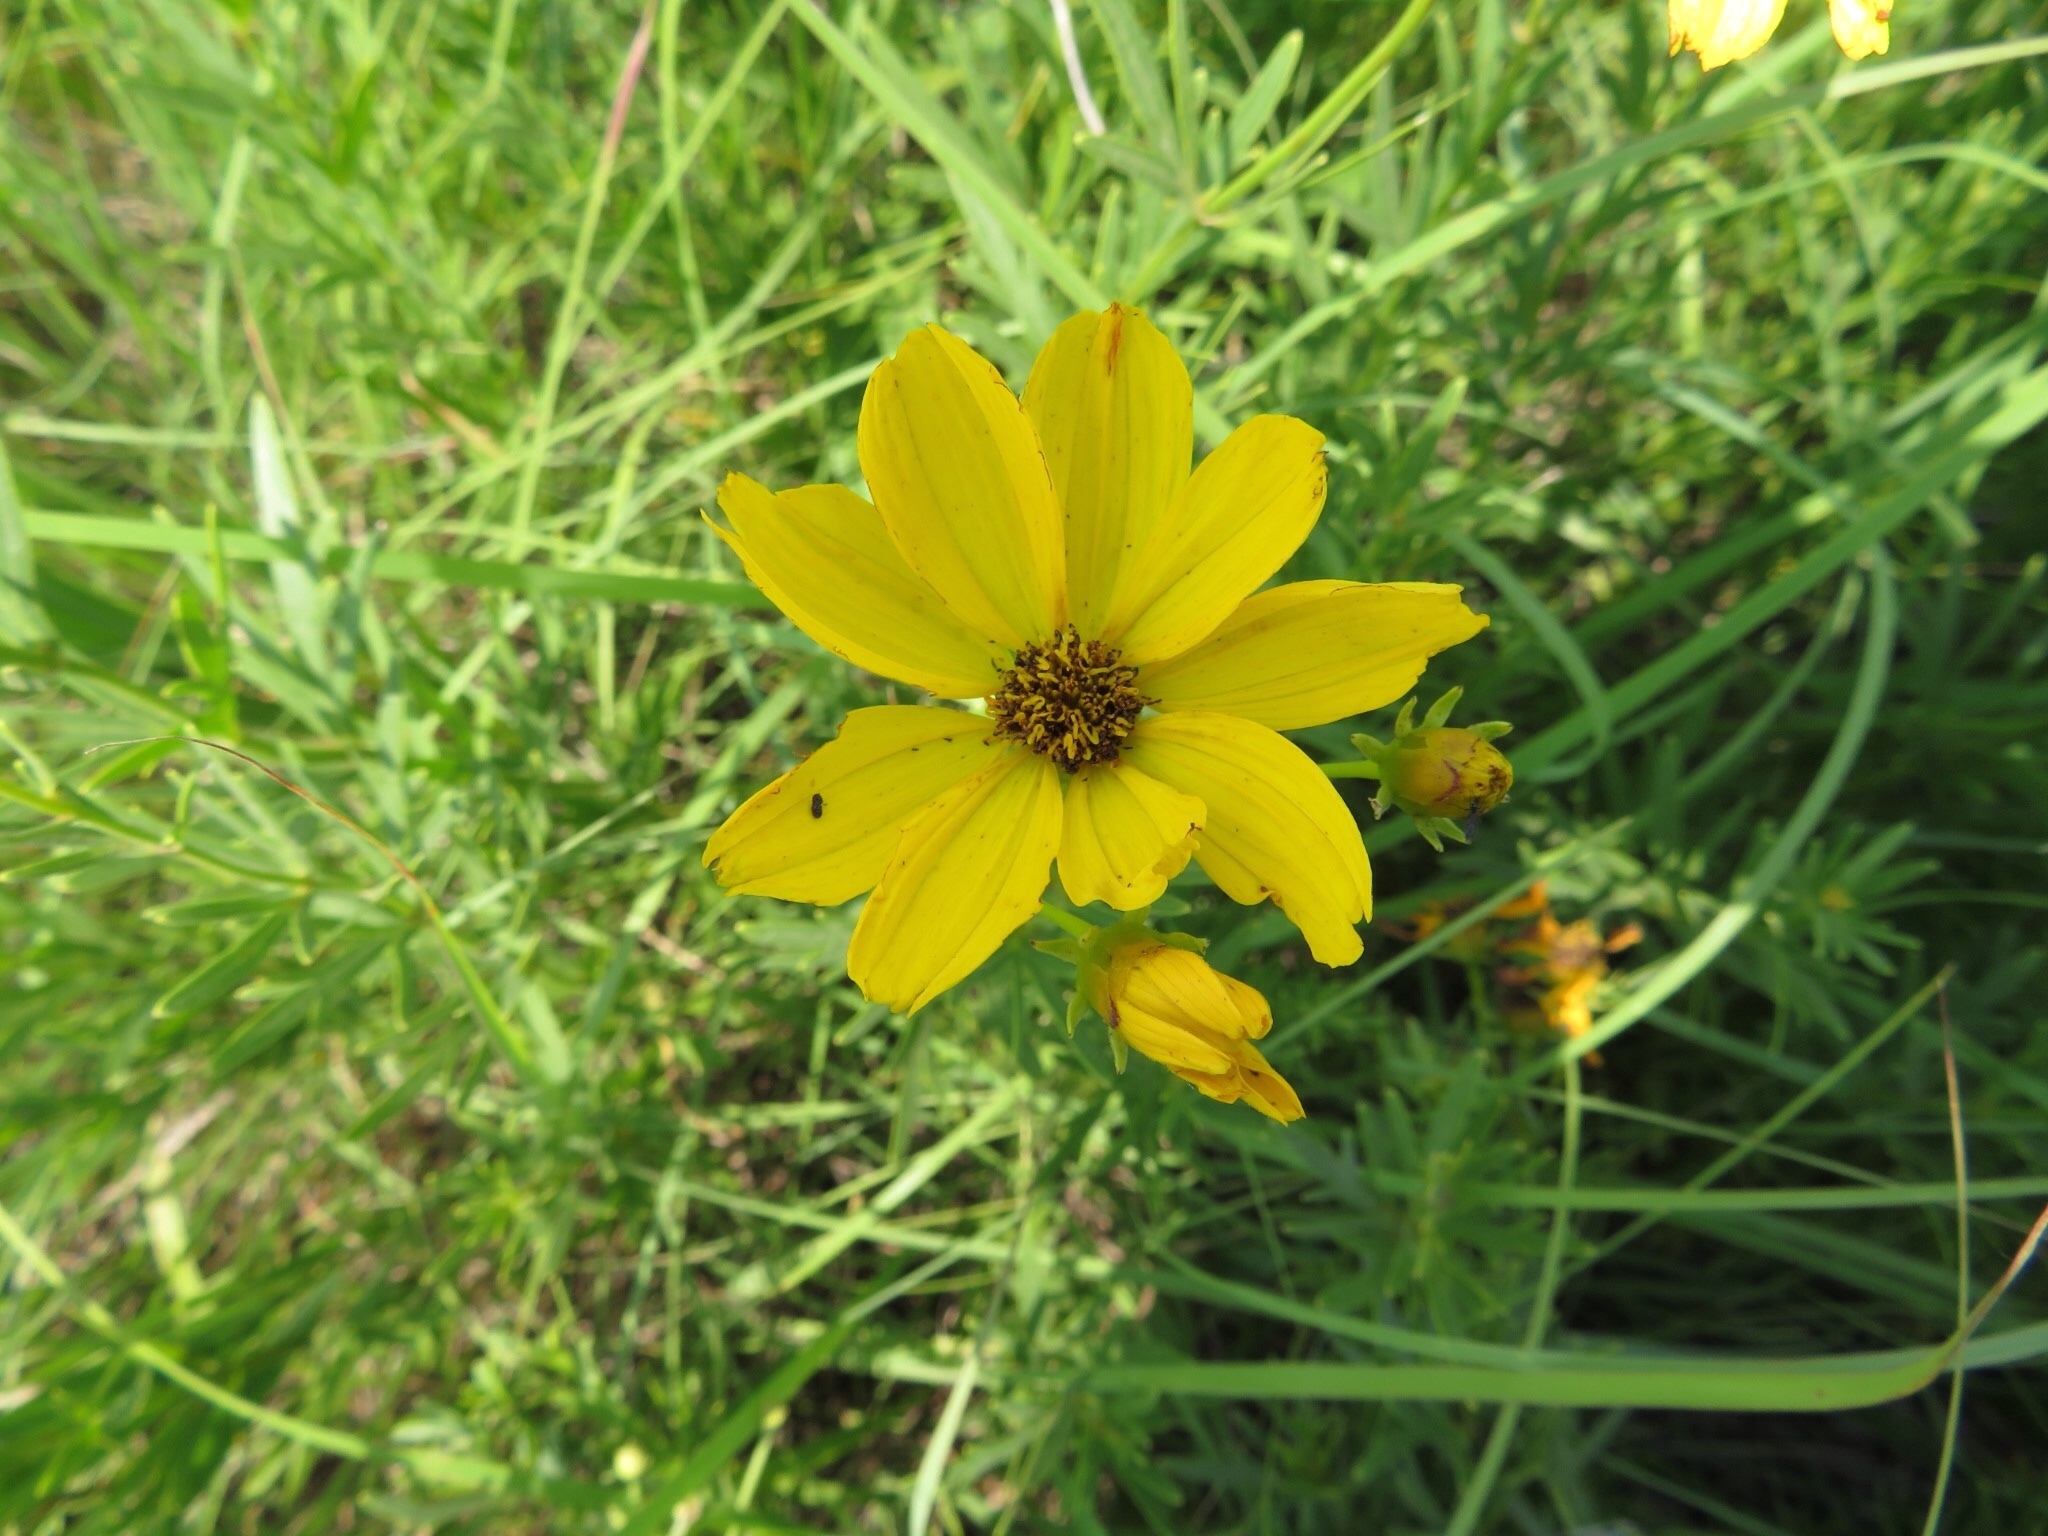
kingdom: Plantae
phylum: Tracheophyta
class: Magnoliopsida
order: Asterales
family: Asteraceae
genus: Coreopsis
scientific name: Coreopsis palmata
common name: Prairie coreopsis
